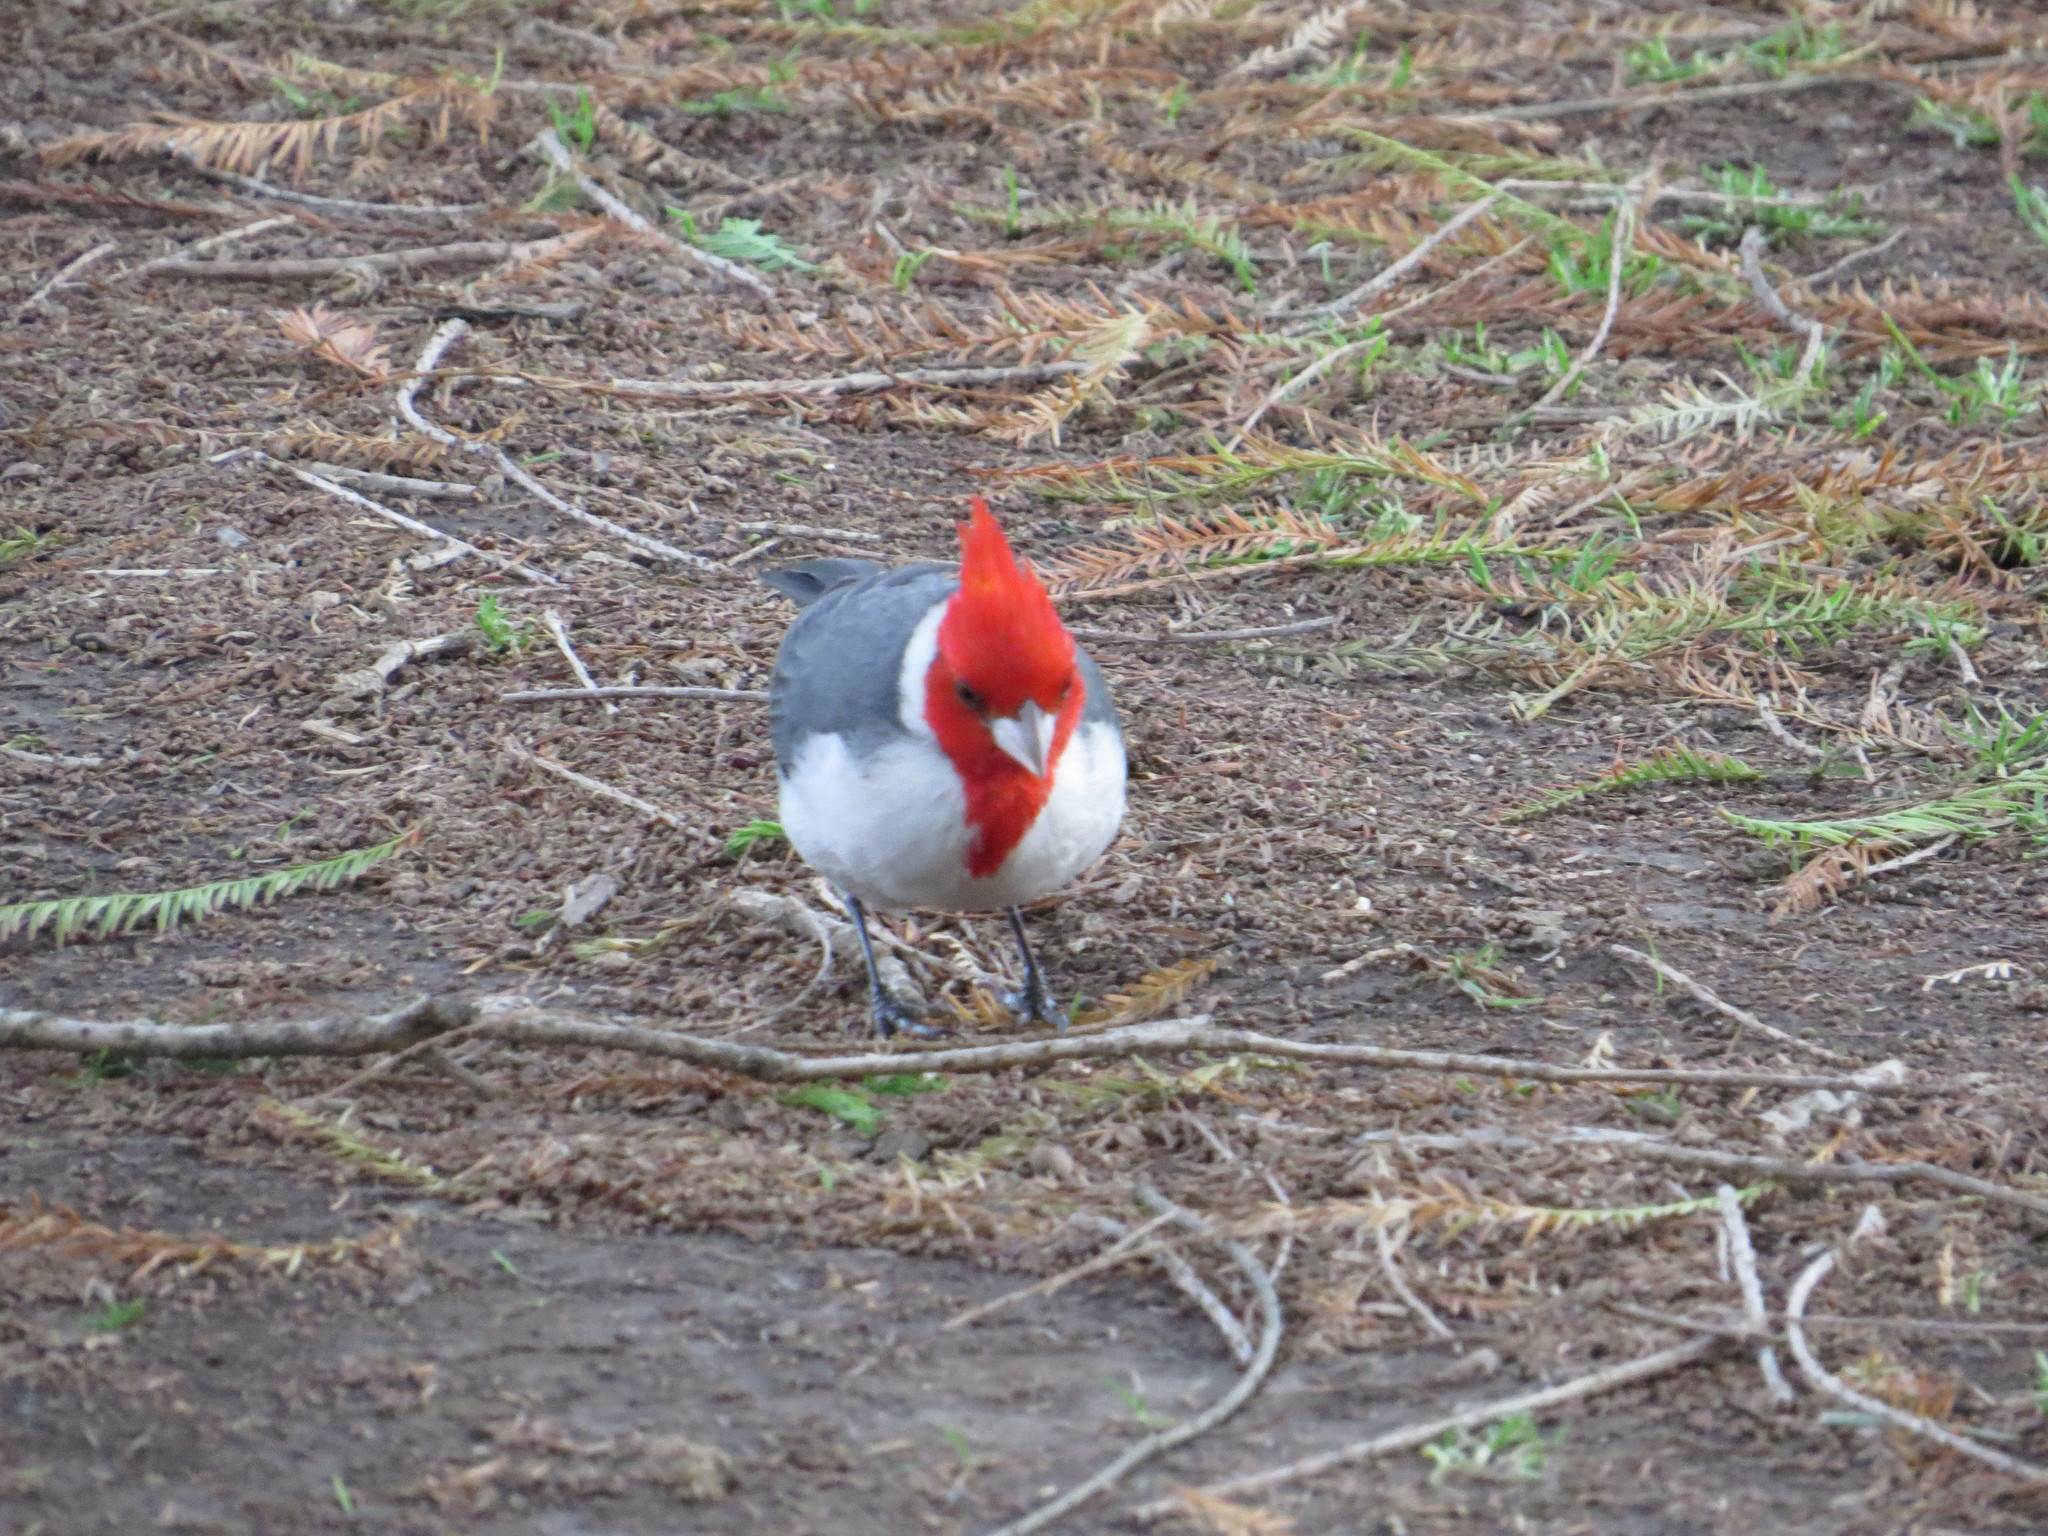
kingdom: Animalia
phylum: Chordata
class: Aves
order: Passeriformes
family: Thraupidae
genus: Paroaria
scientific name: Paroaria coronata
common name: Red-crested cardinal
